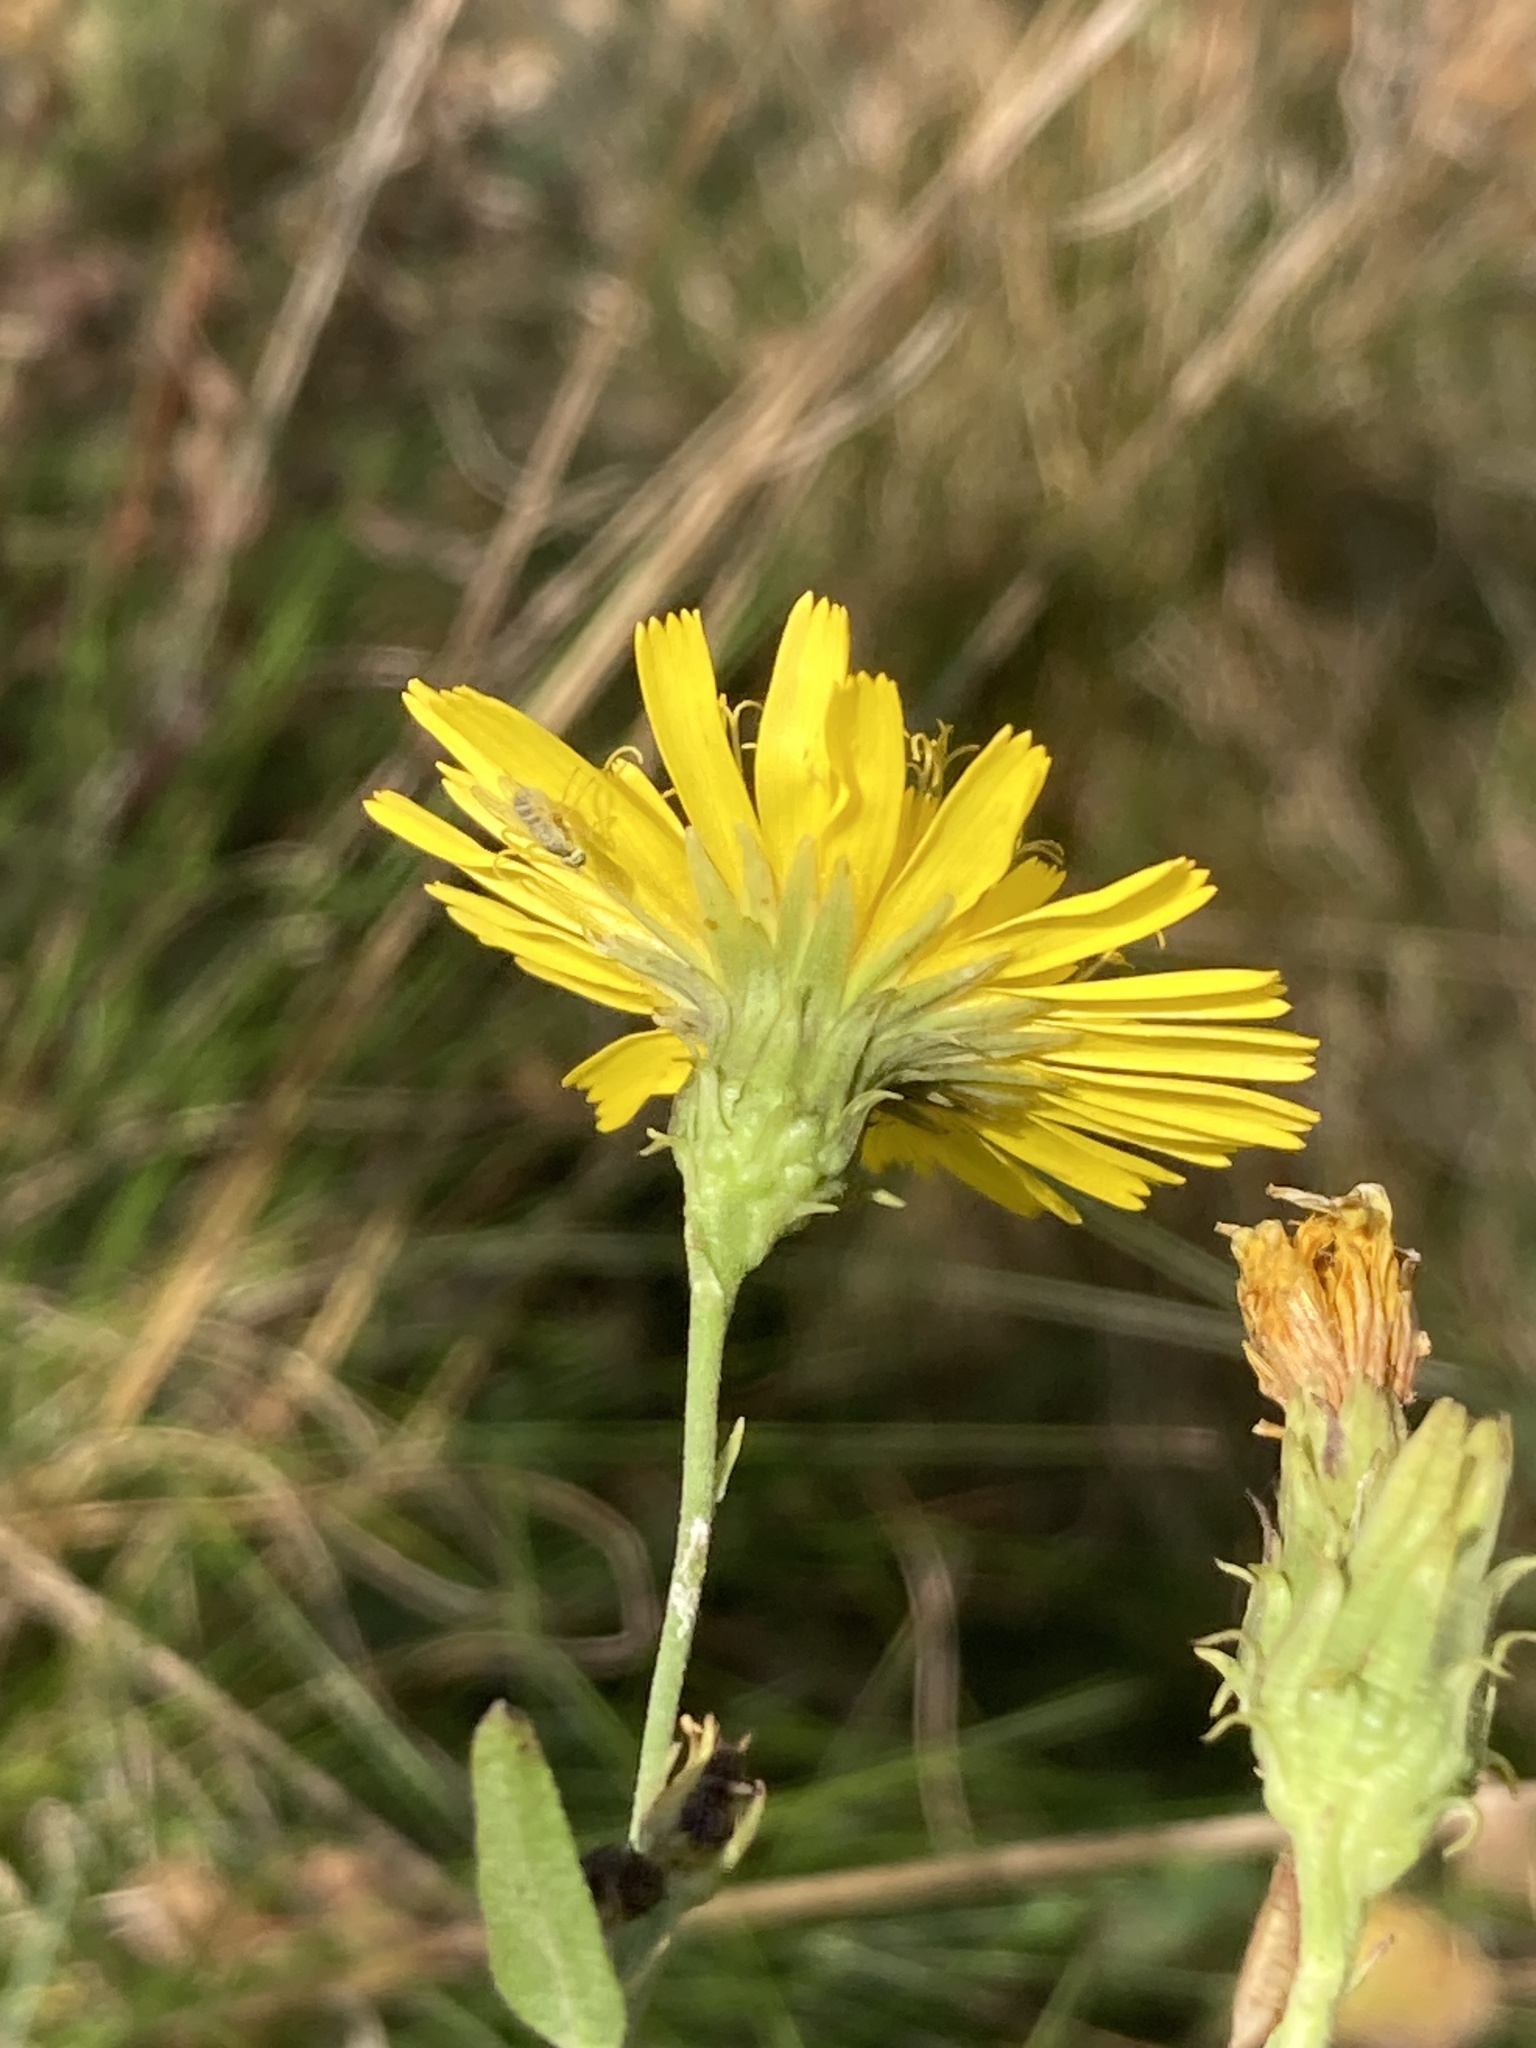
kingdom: Plantae
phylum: Tracheophyta
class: Magnoliopsida
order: Asterales
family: Asteraceae
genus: Hieracium
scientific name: Hieracium umbellatum
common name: Northern hawkweed
